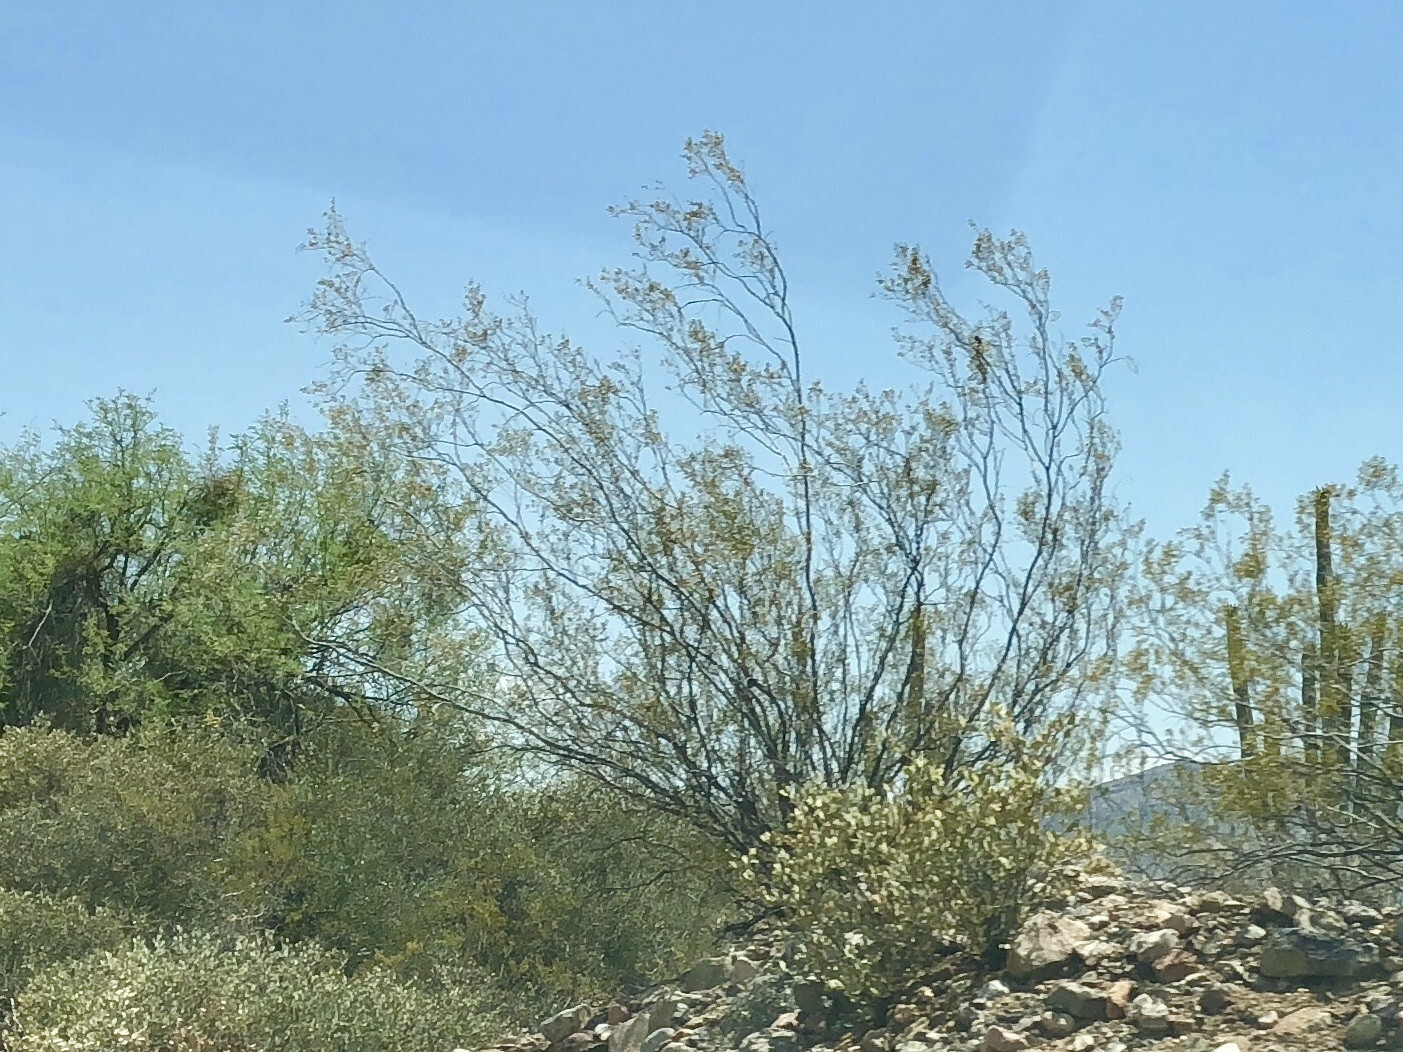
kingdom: Plantae
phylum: Tracheophyta
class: Magnoliopsida
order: Zygophyllales
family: Zygophyllaceae
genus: Larrea
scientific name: Larrea tridentata
